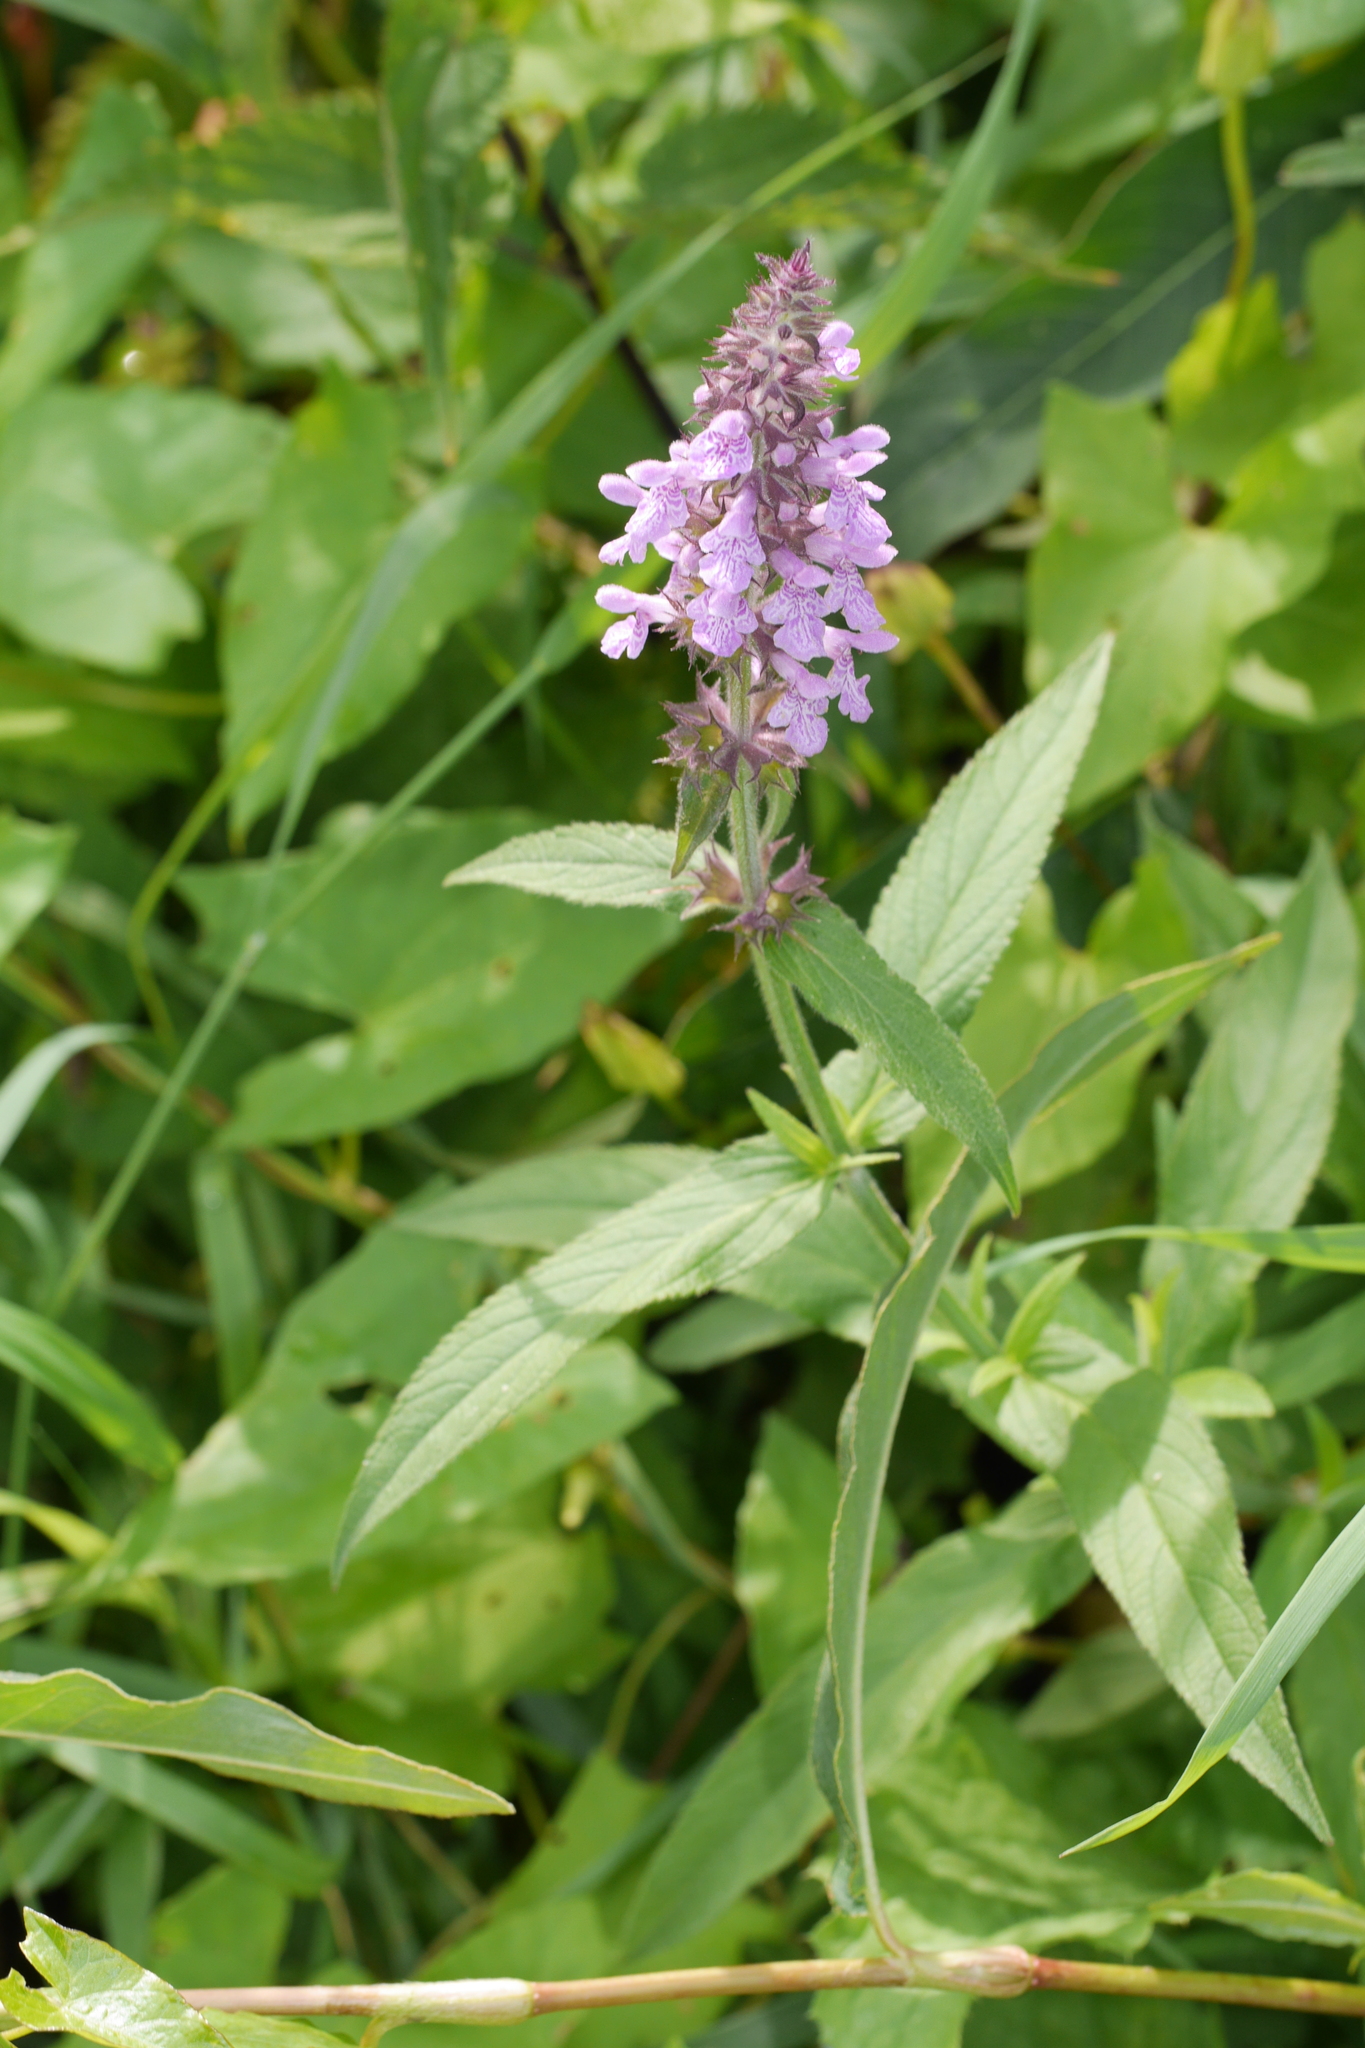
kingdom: Plantae
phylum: Tracheophyta
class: Magnoliopsida
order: Lamiales
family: Lamiaceae
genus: Stachys
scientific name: Stachys palustris
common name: Marsh woundwort
